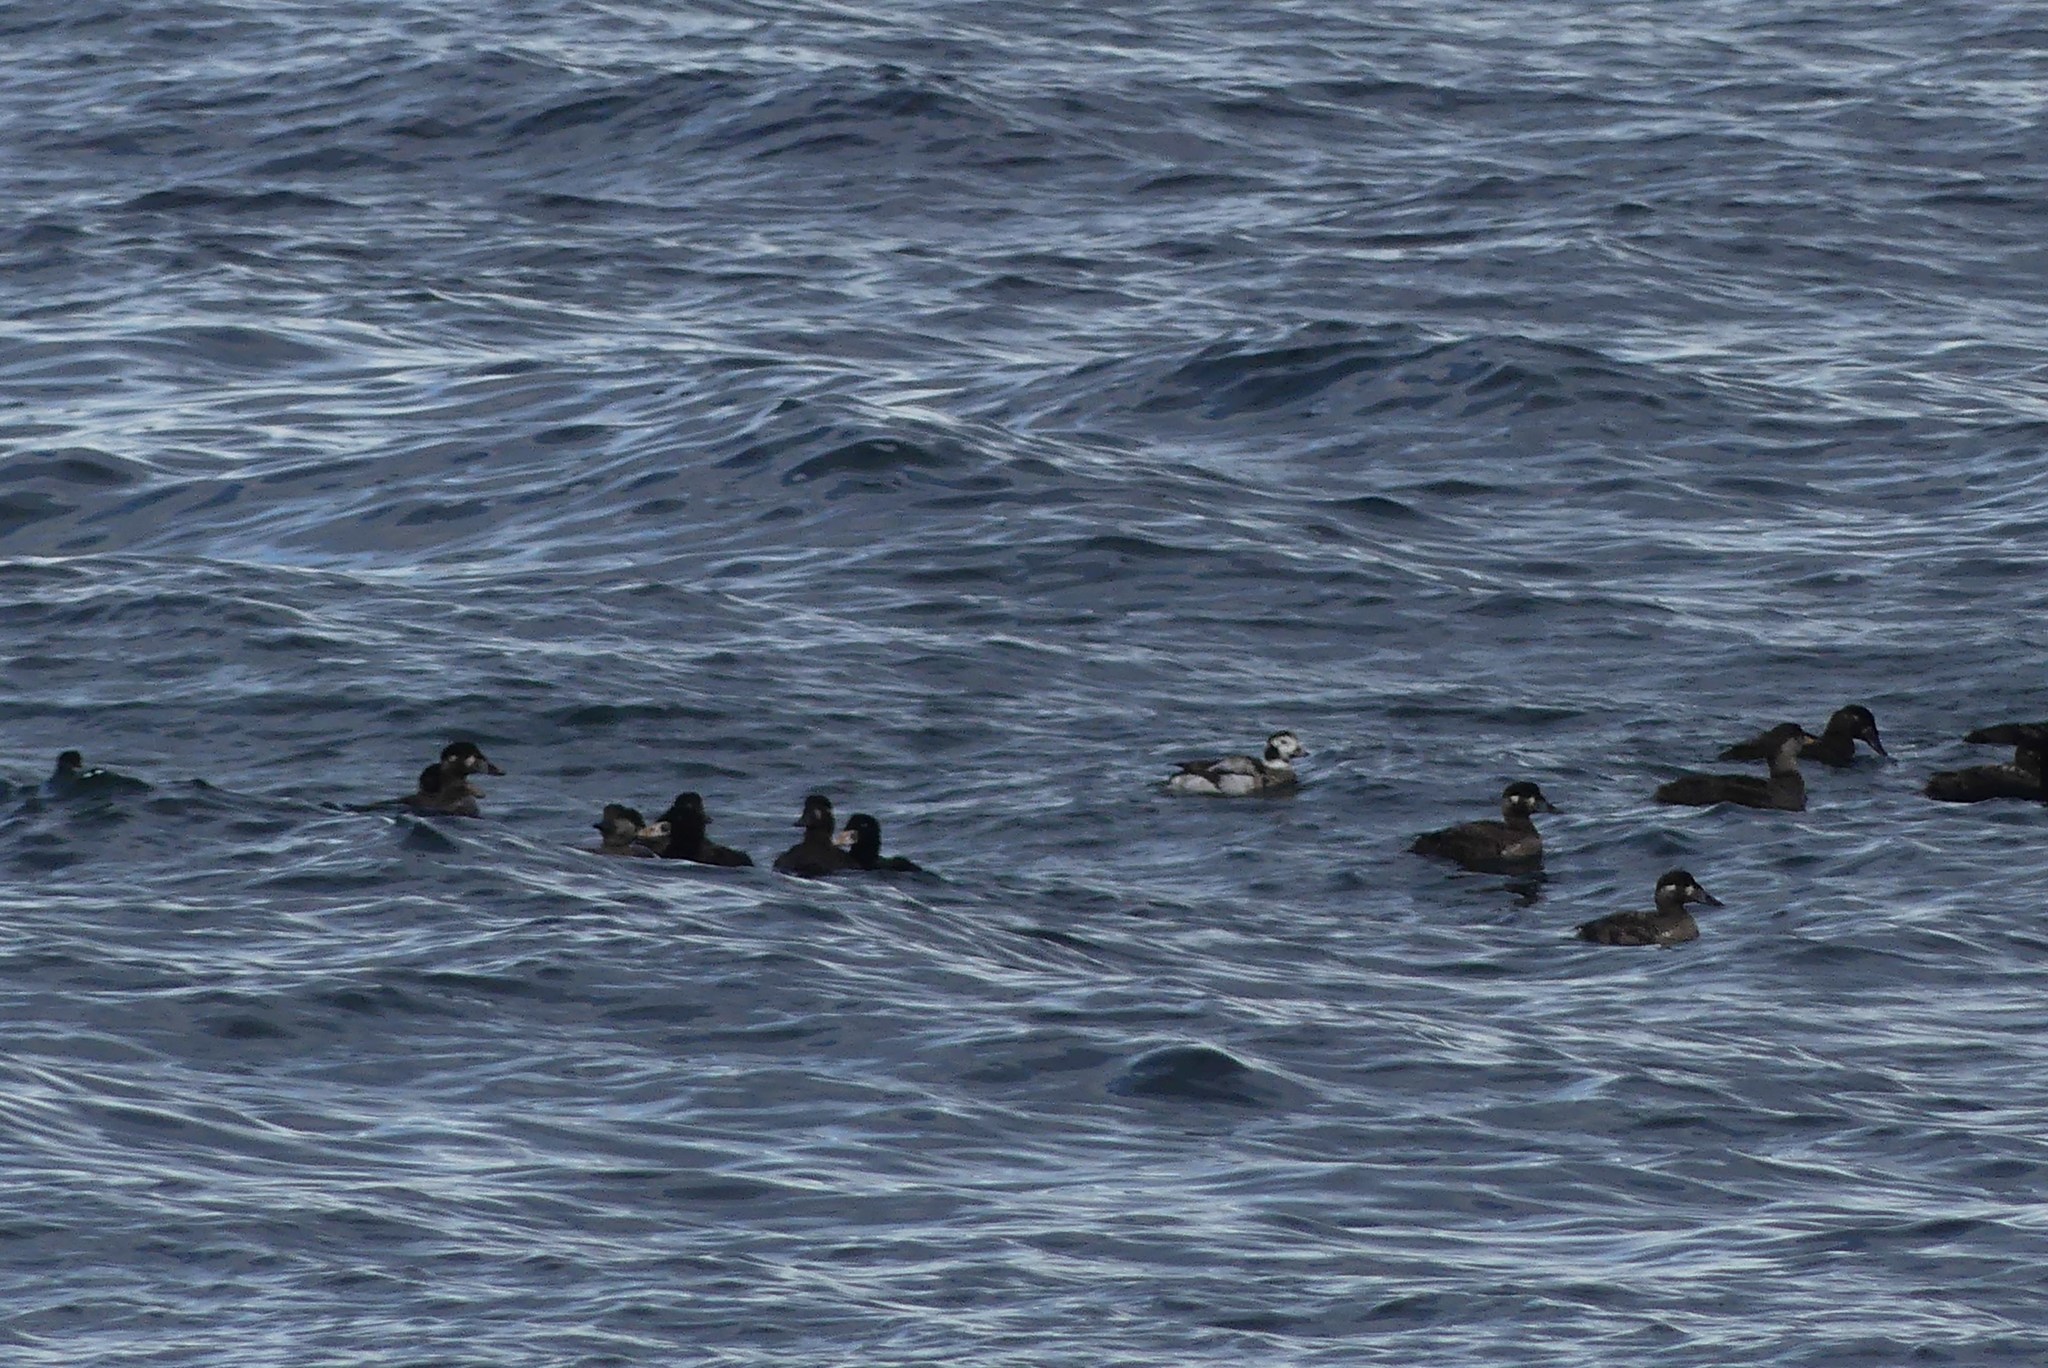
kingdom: Animalia
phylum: Chordata
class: Aves
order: Anseriformes
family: Anatidae
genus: Clangula
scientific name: Clangula hyemalis
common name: Long-tailed duck
